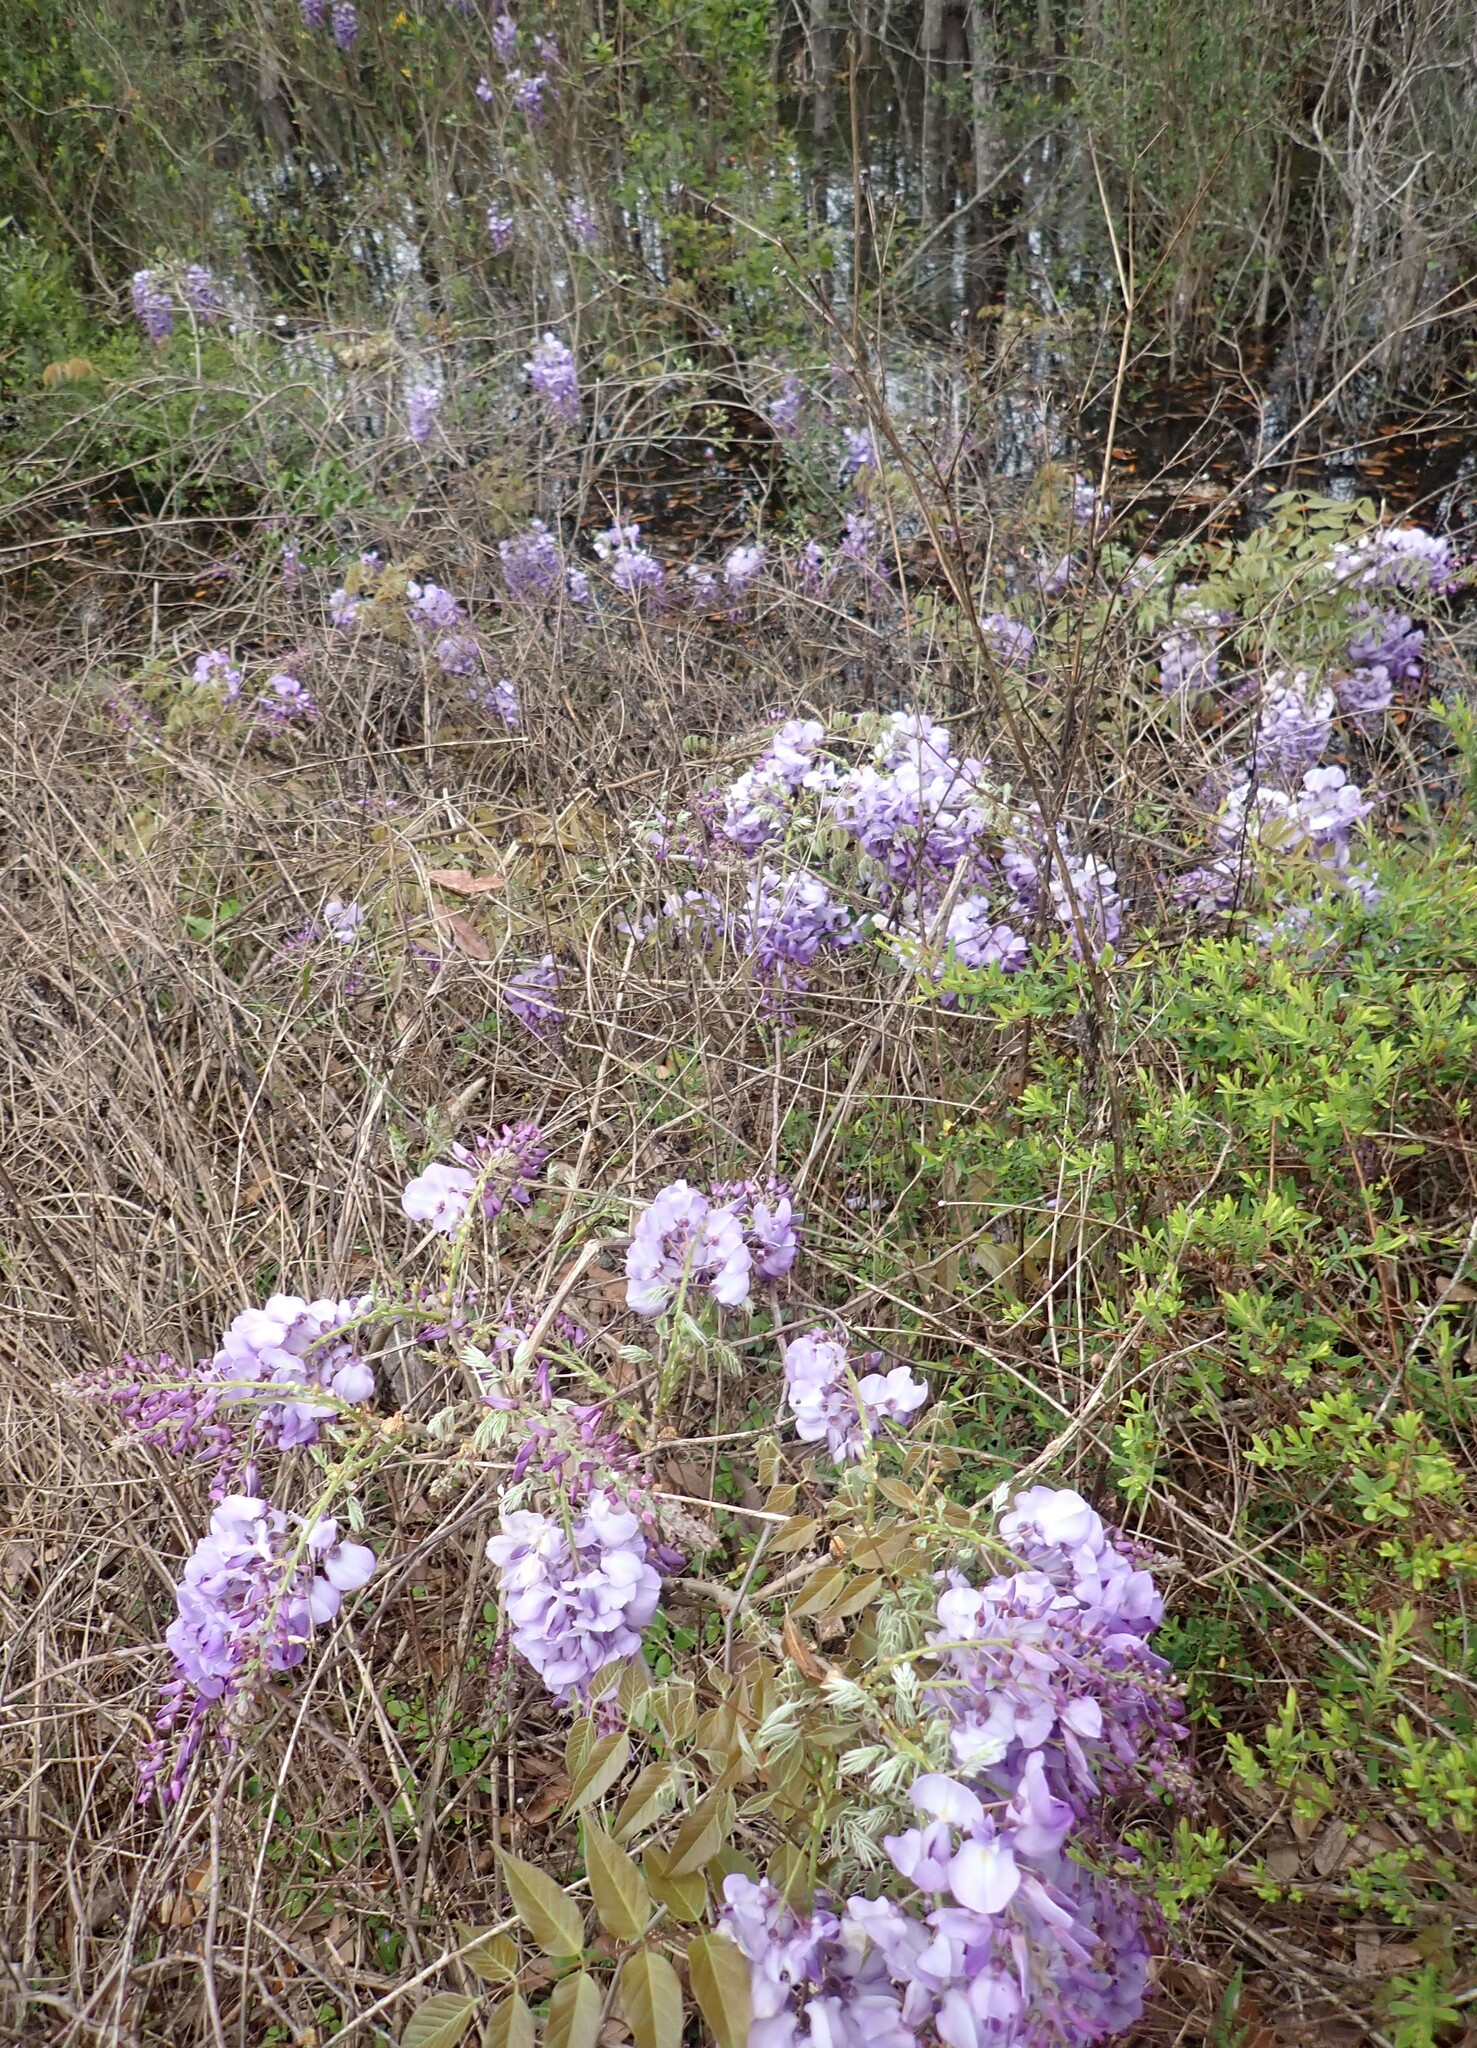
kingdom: Plantae
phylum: Tracheophyta
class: Magnoliopsida
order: Fabales
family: Fabaceae
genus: Wisteria
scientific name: Wisteria sinensis
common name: Chinese wisteria
